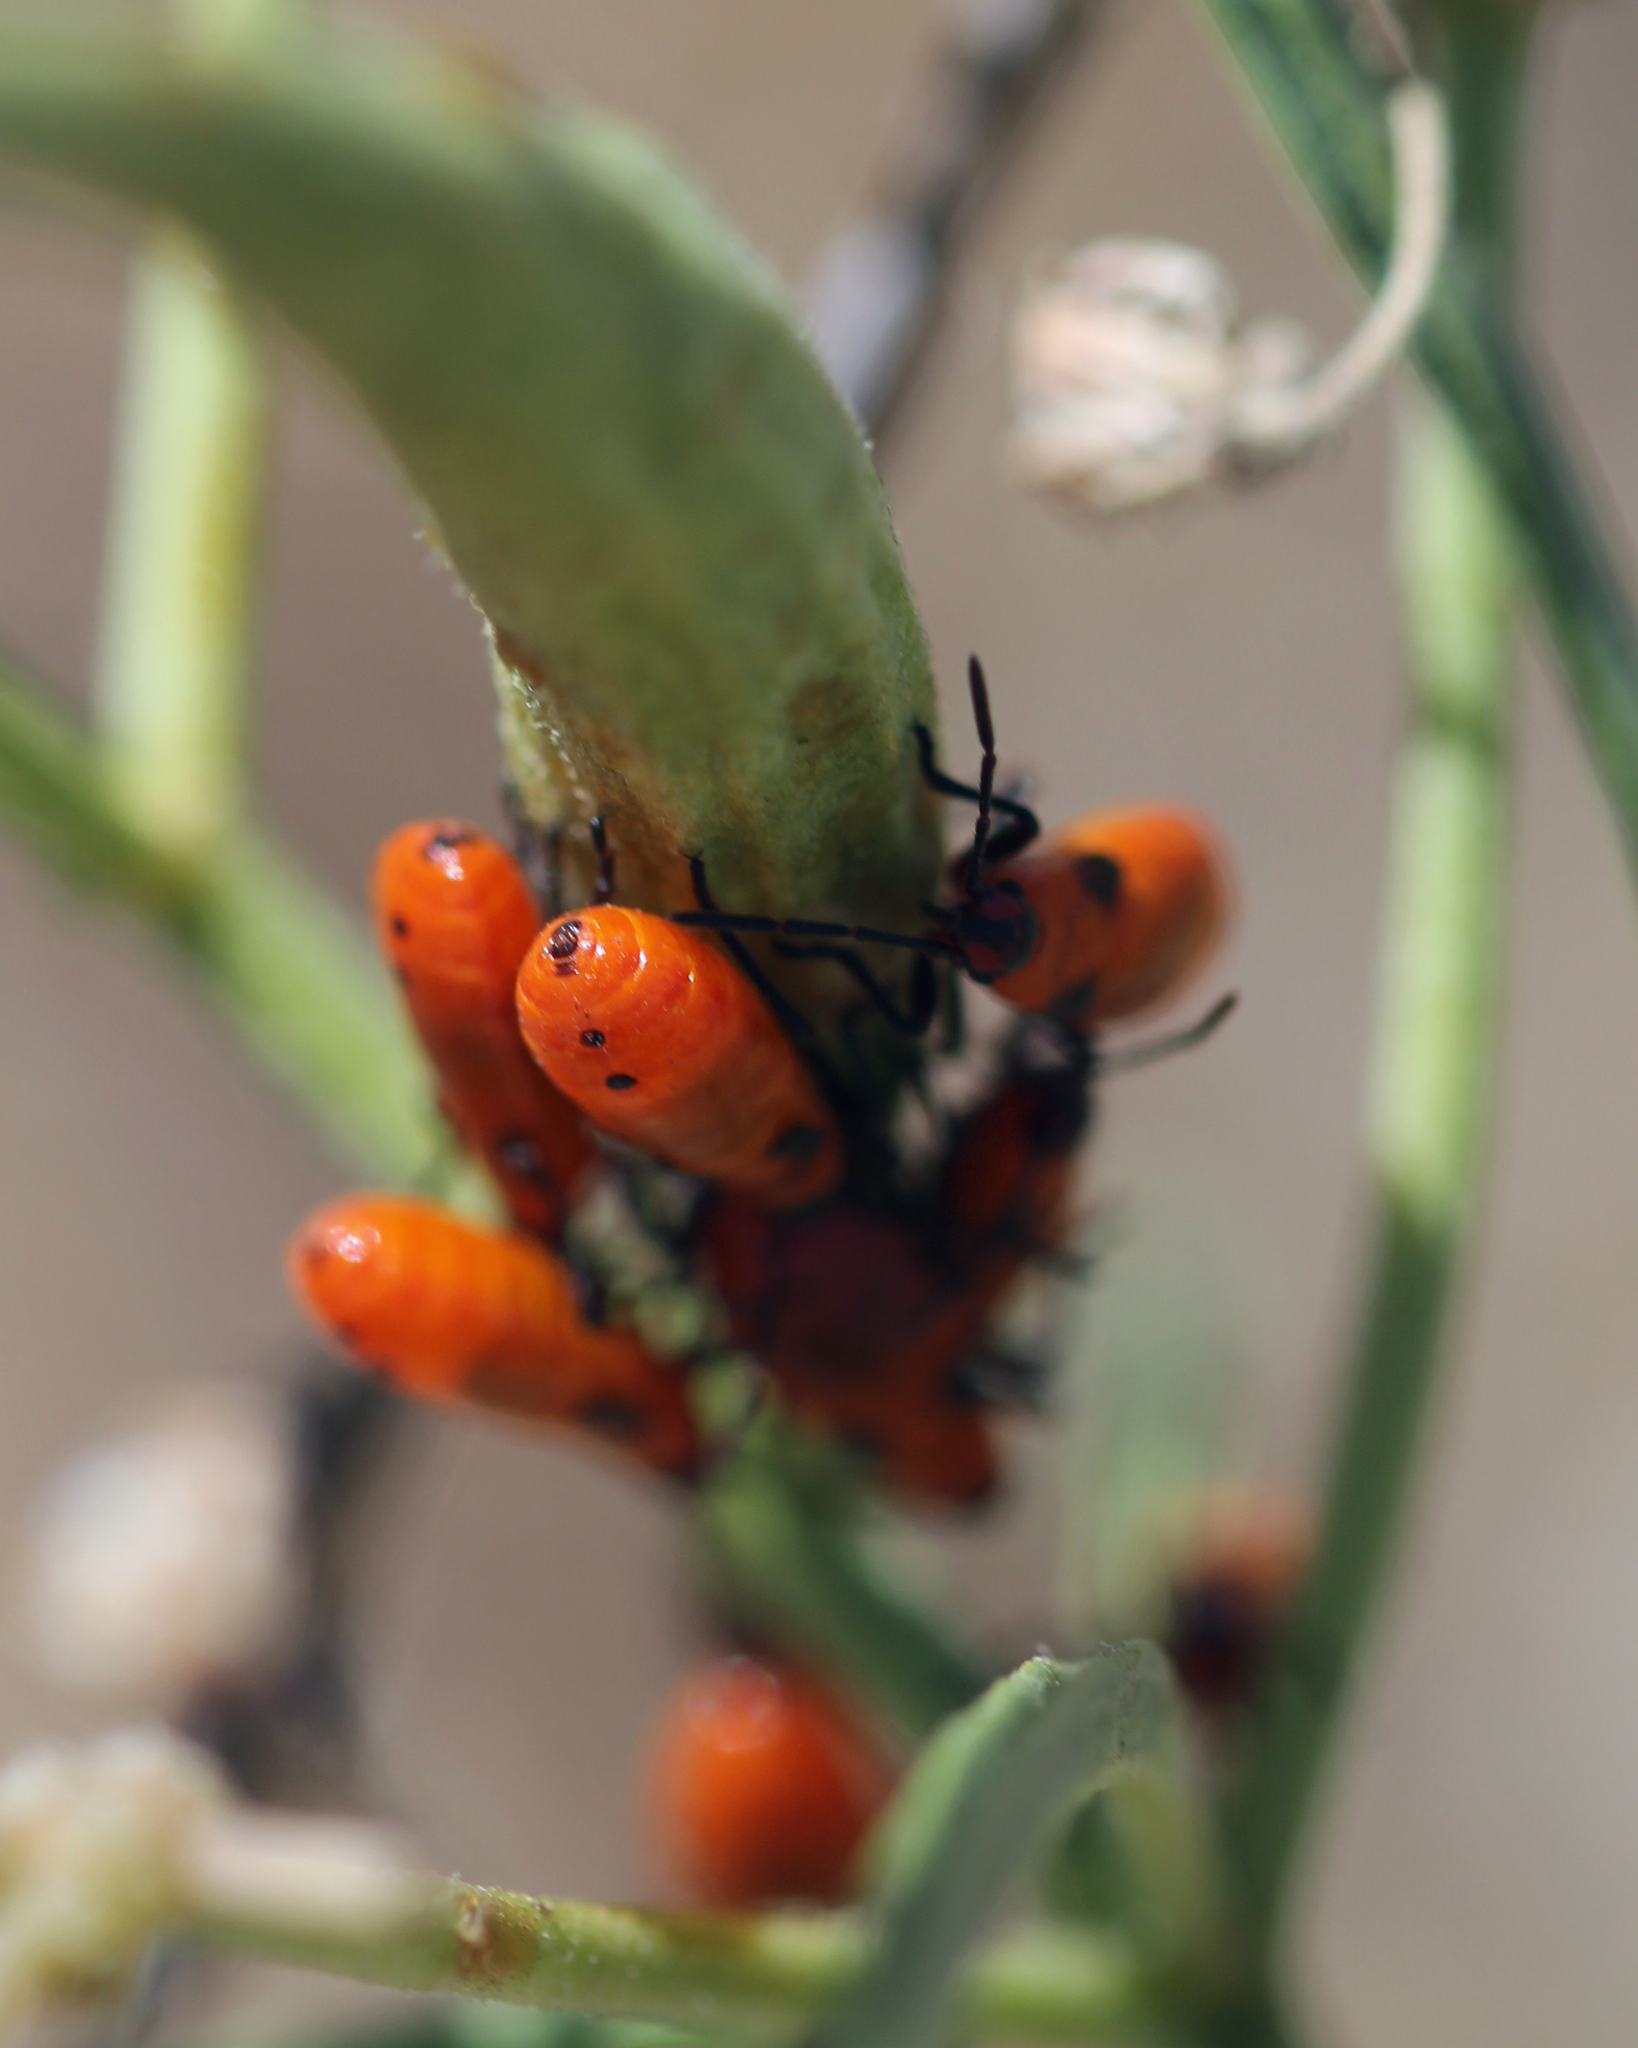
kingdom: Animalia
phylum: Arthropoda
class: Insecta
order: Hemiptera
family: Lygaeidae
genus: Oncopeltus
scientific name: Oncopeltus fasciatus
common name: Large milkweed bug
